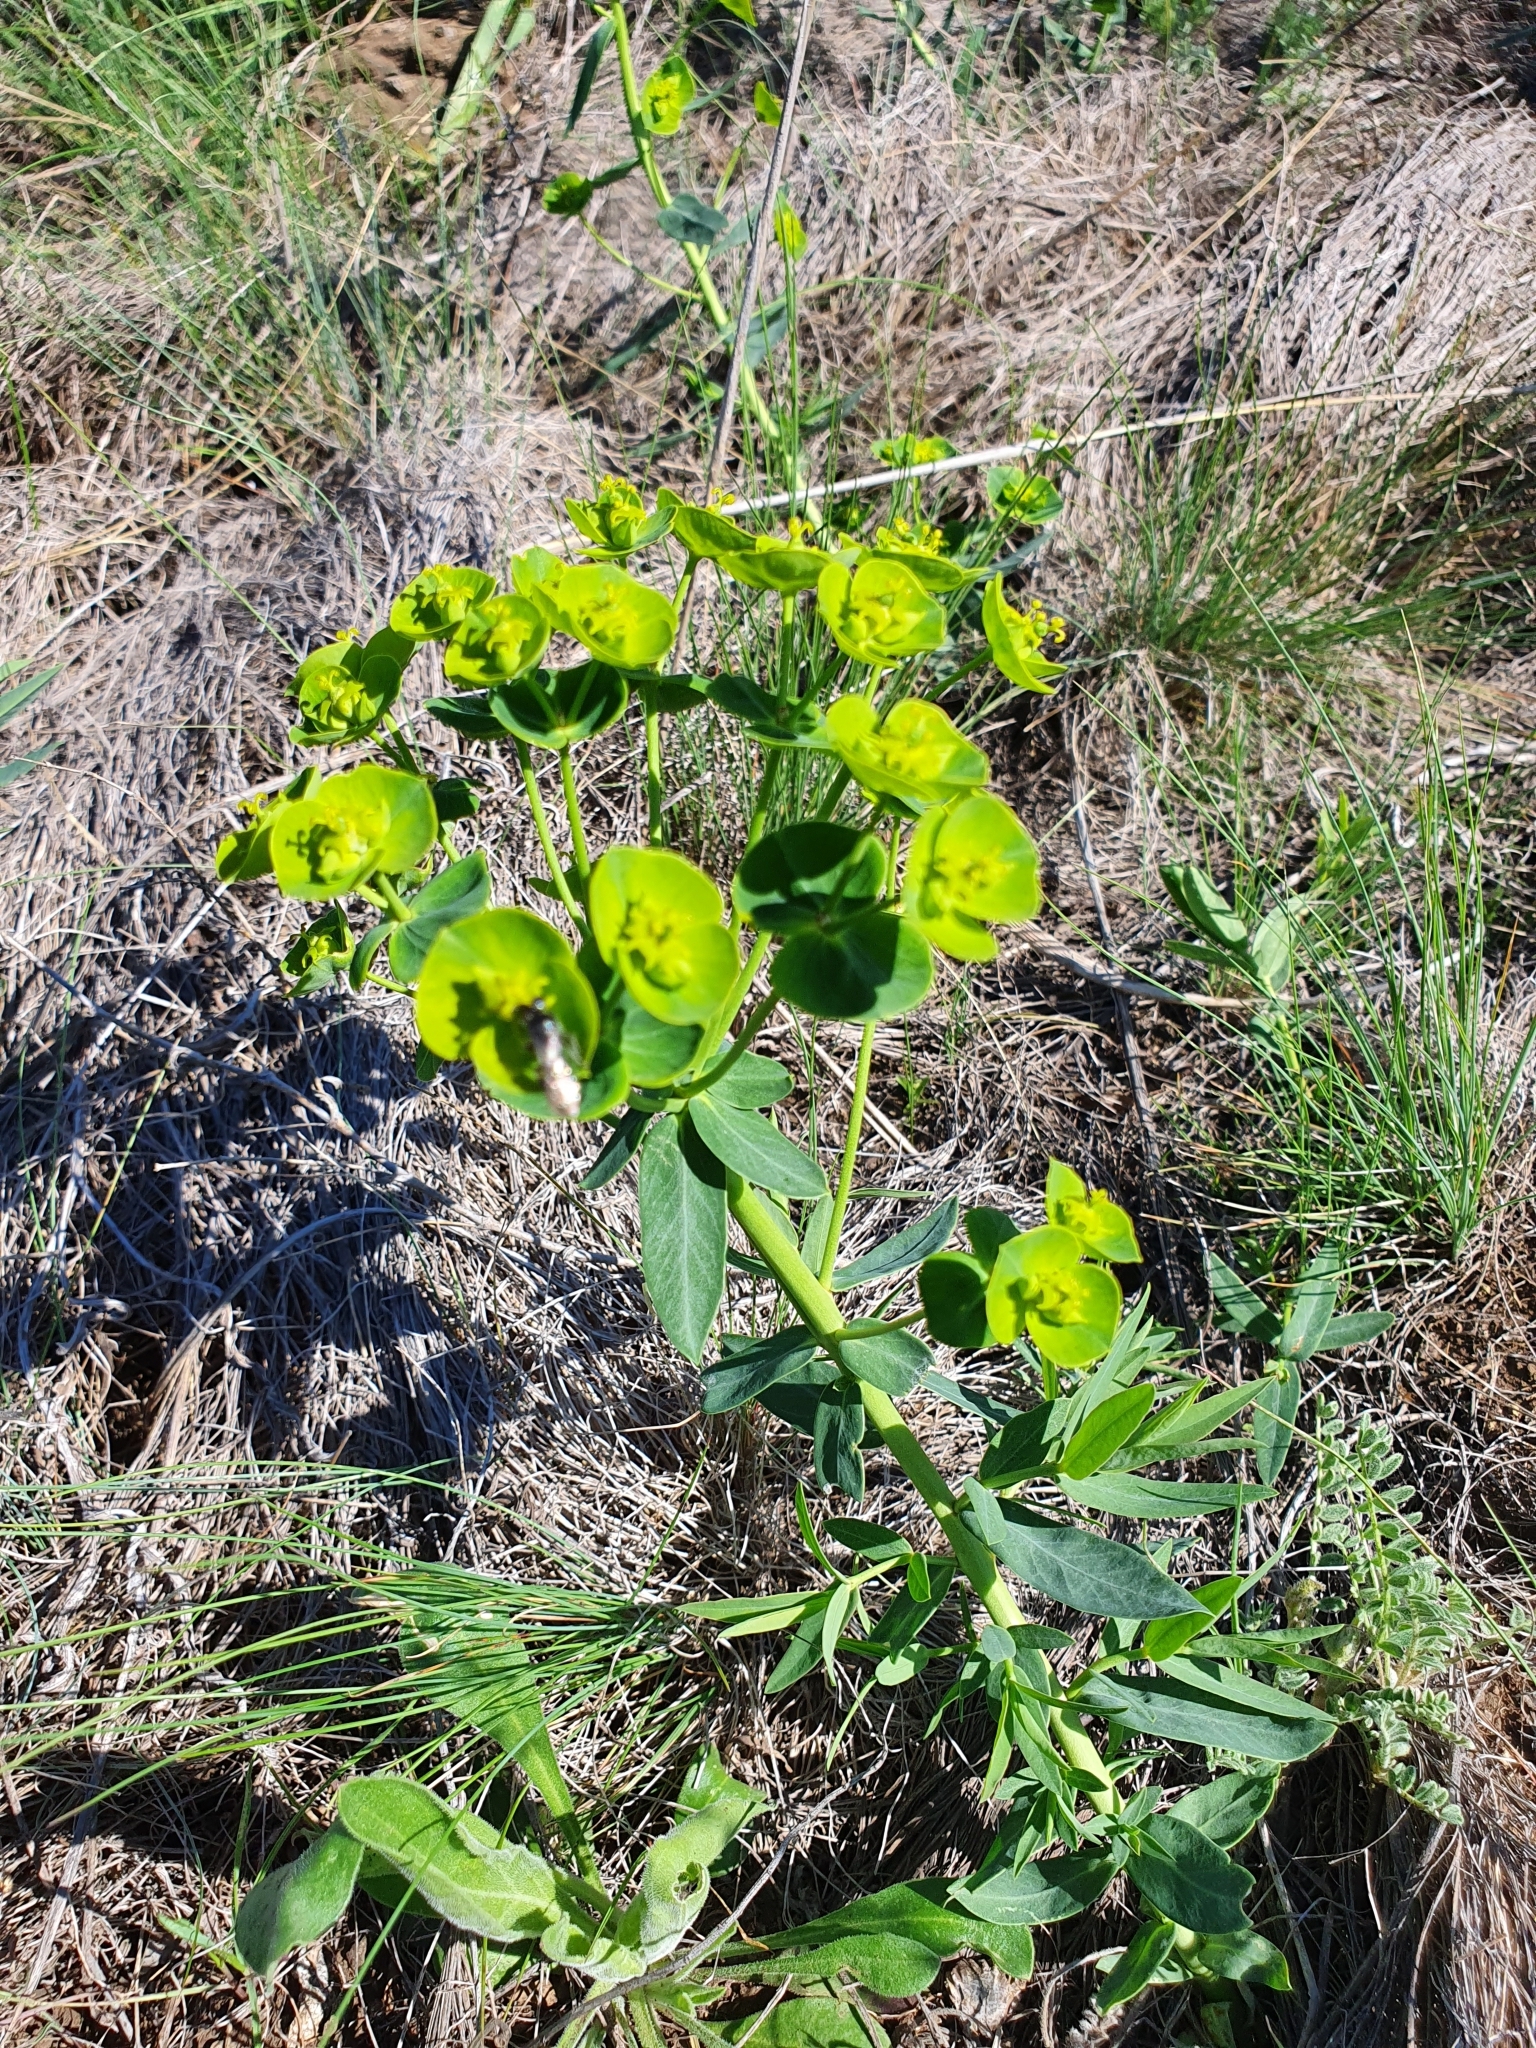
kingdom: Plantae
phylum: Tracheophyta
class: Magnoliopsida
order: Malpighiales
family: Euphorbiaceae
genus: Euphorbia
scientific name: Euphorbia esula
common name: Leafy spurge
